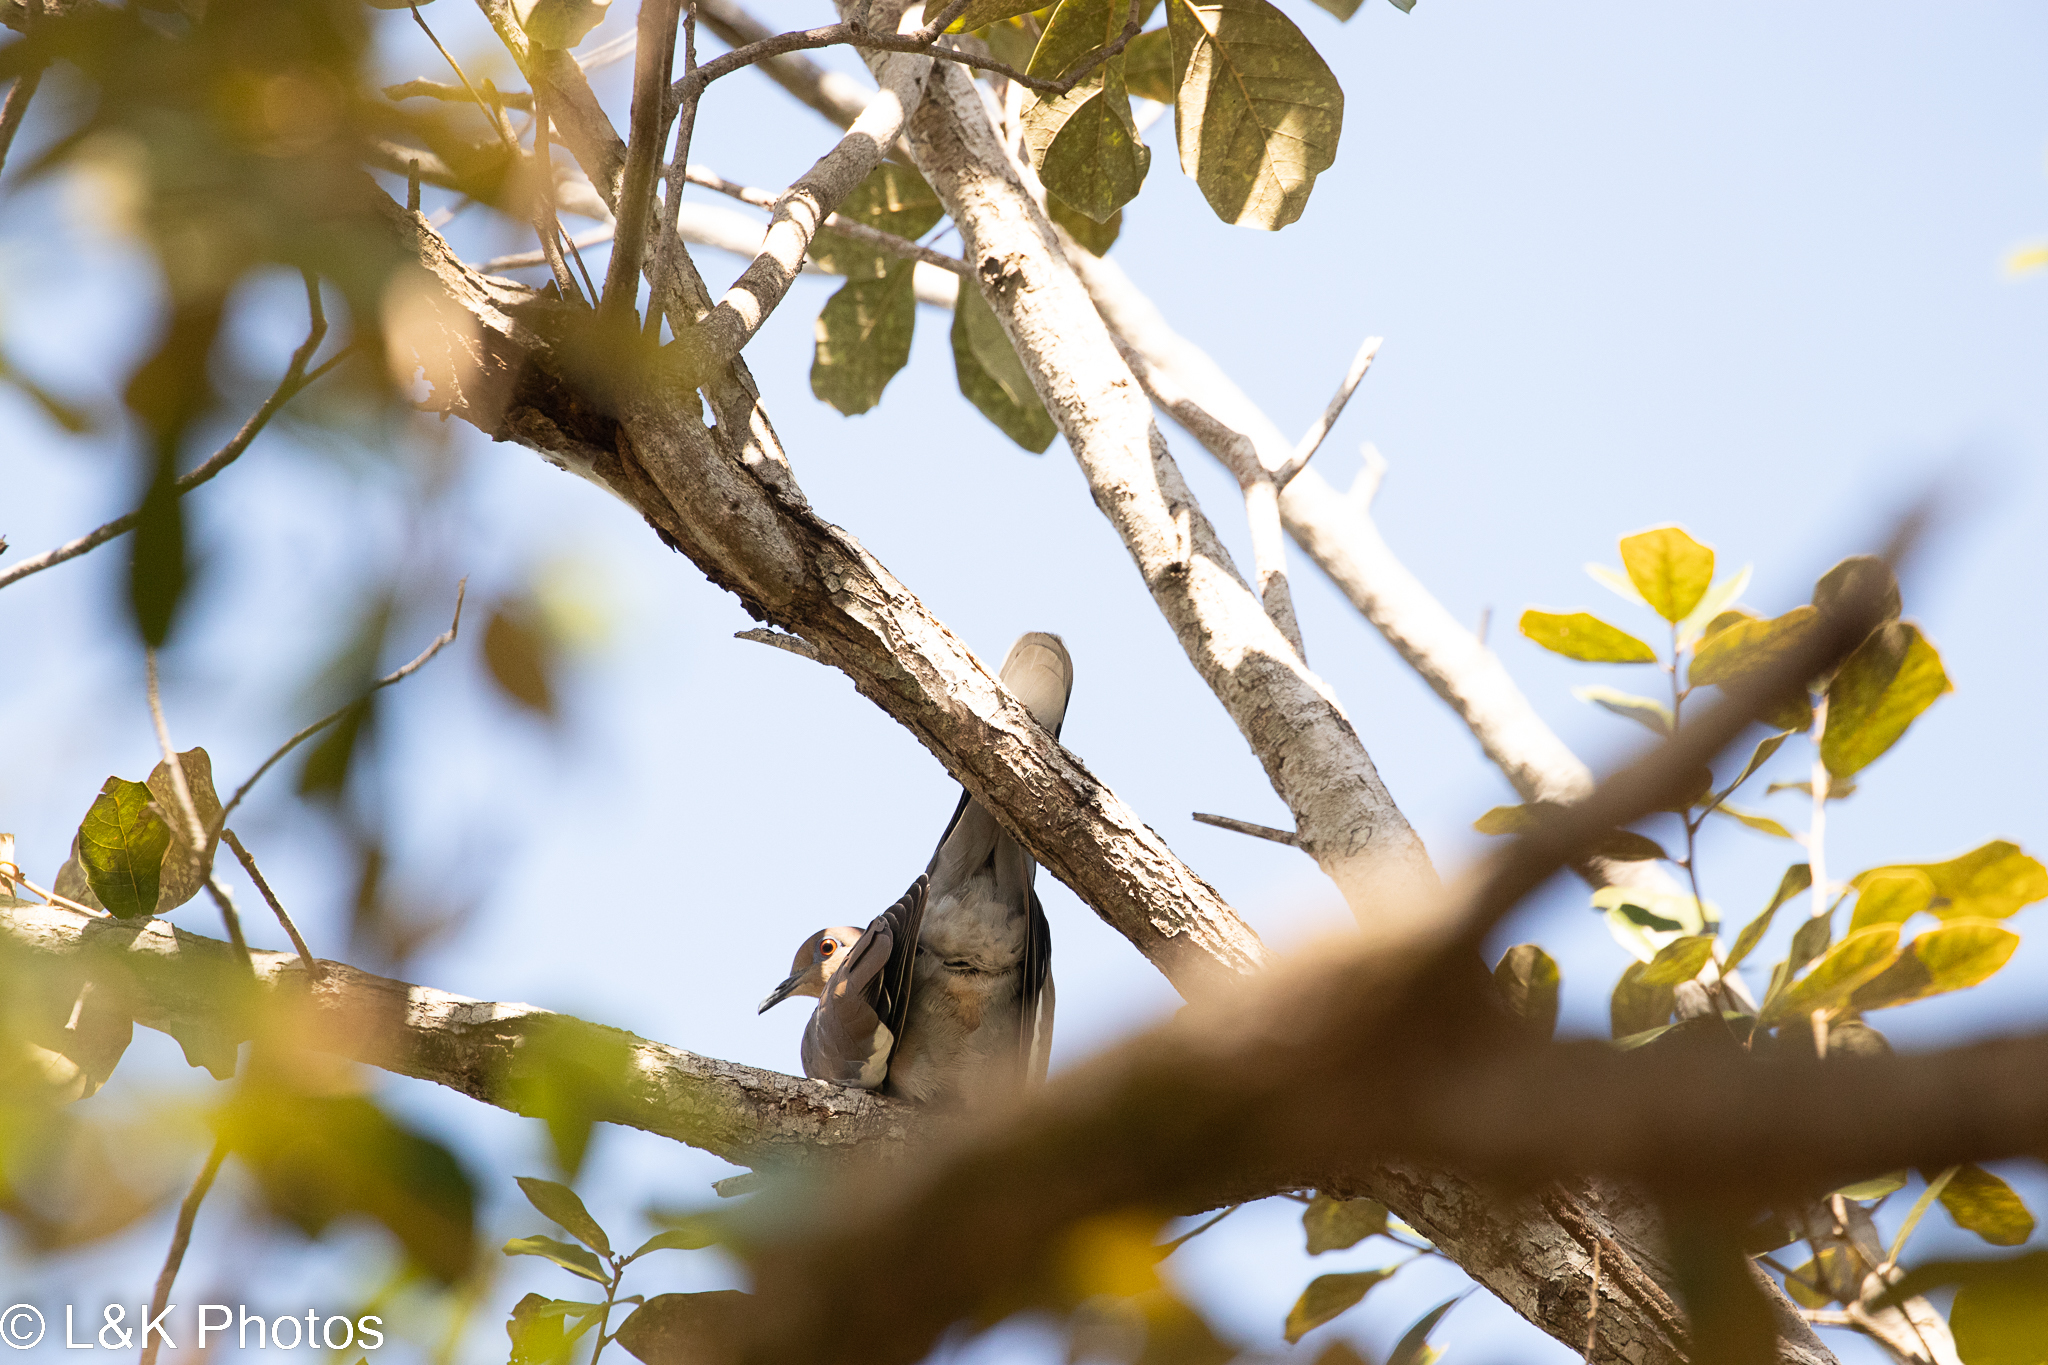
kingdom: Animalia
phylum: Chordata
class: Aves
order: Columbiformes
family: Columbidae
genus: Zenaida
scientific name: Zenaida asiatica
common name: White-winged dove
